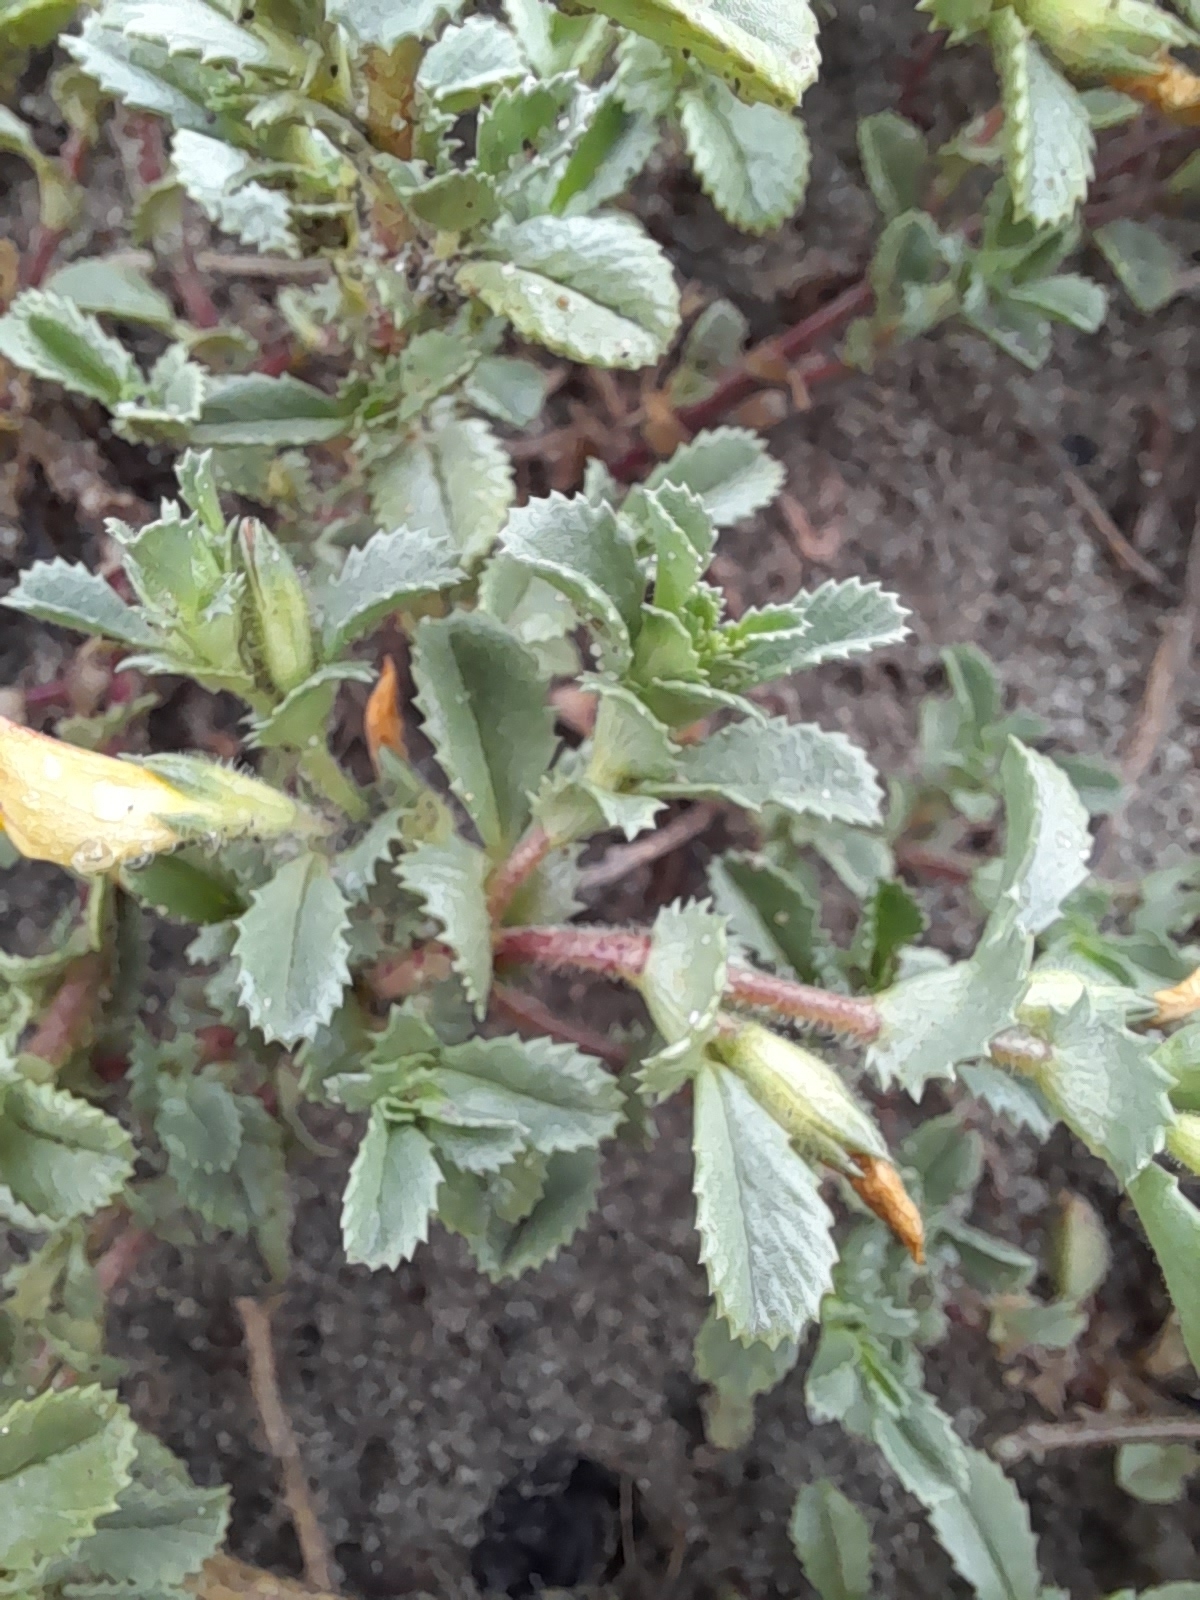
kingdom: Plantae
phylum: Tracheophyta
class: Magnoliopsida
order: Fabales
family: Fabaceae
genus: Ononis
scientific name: Ononis variegata
